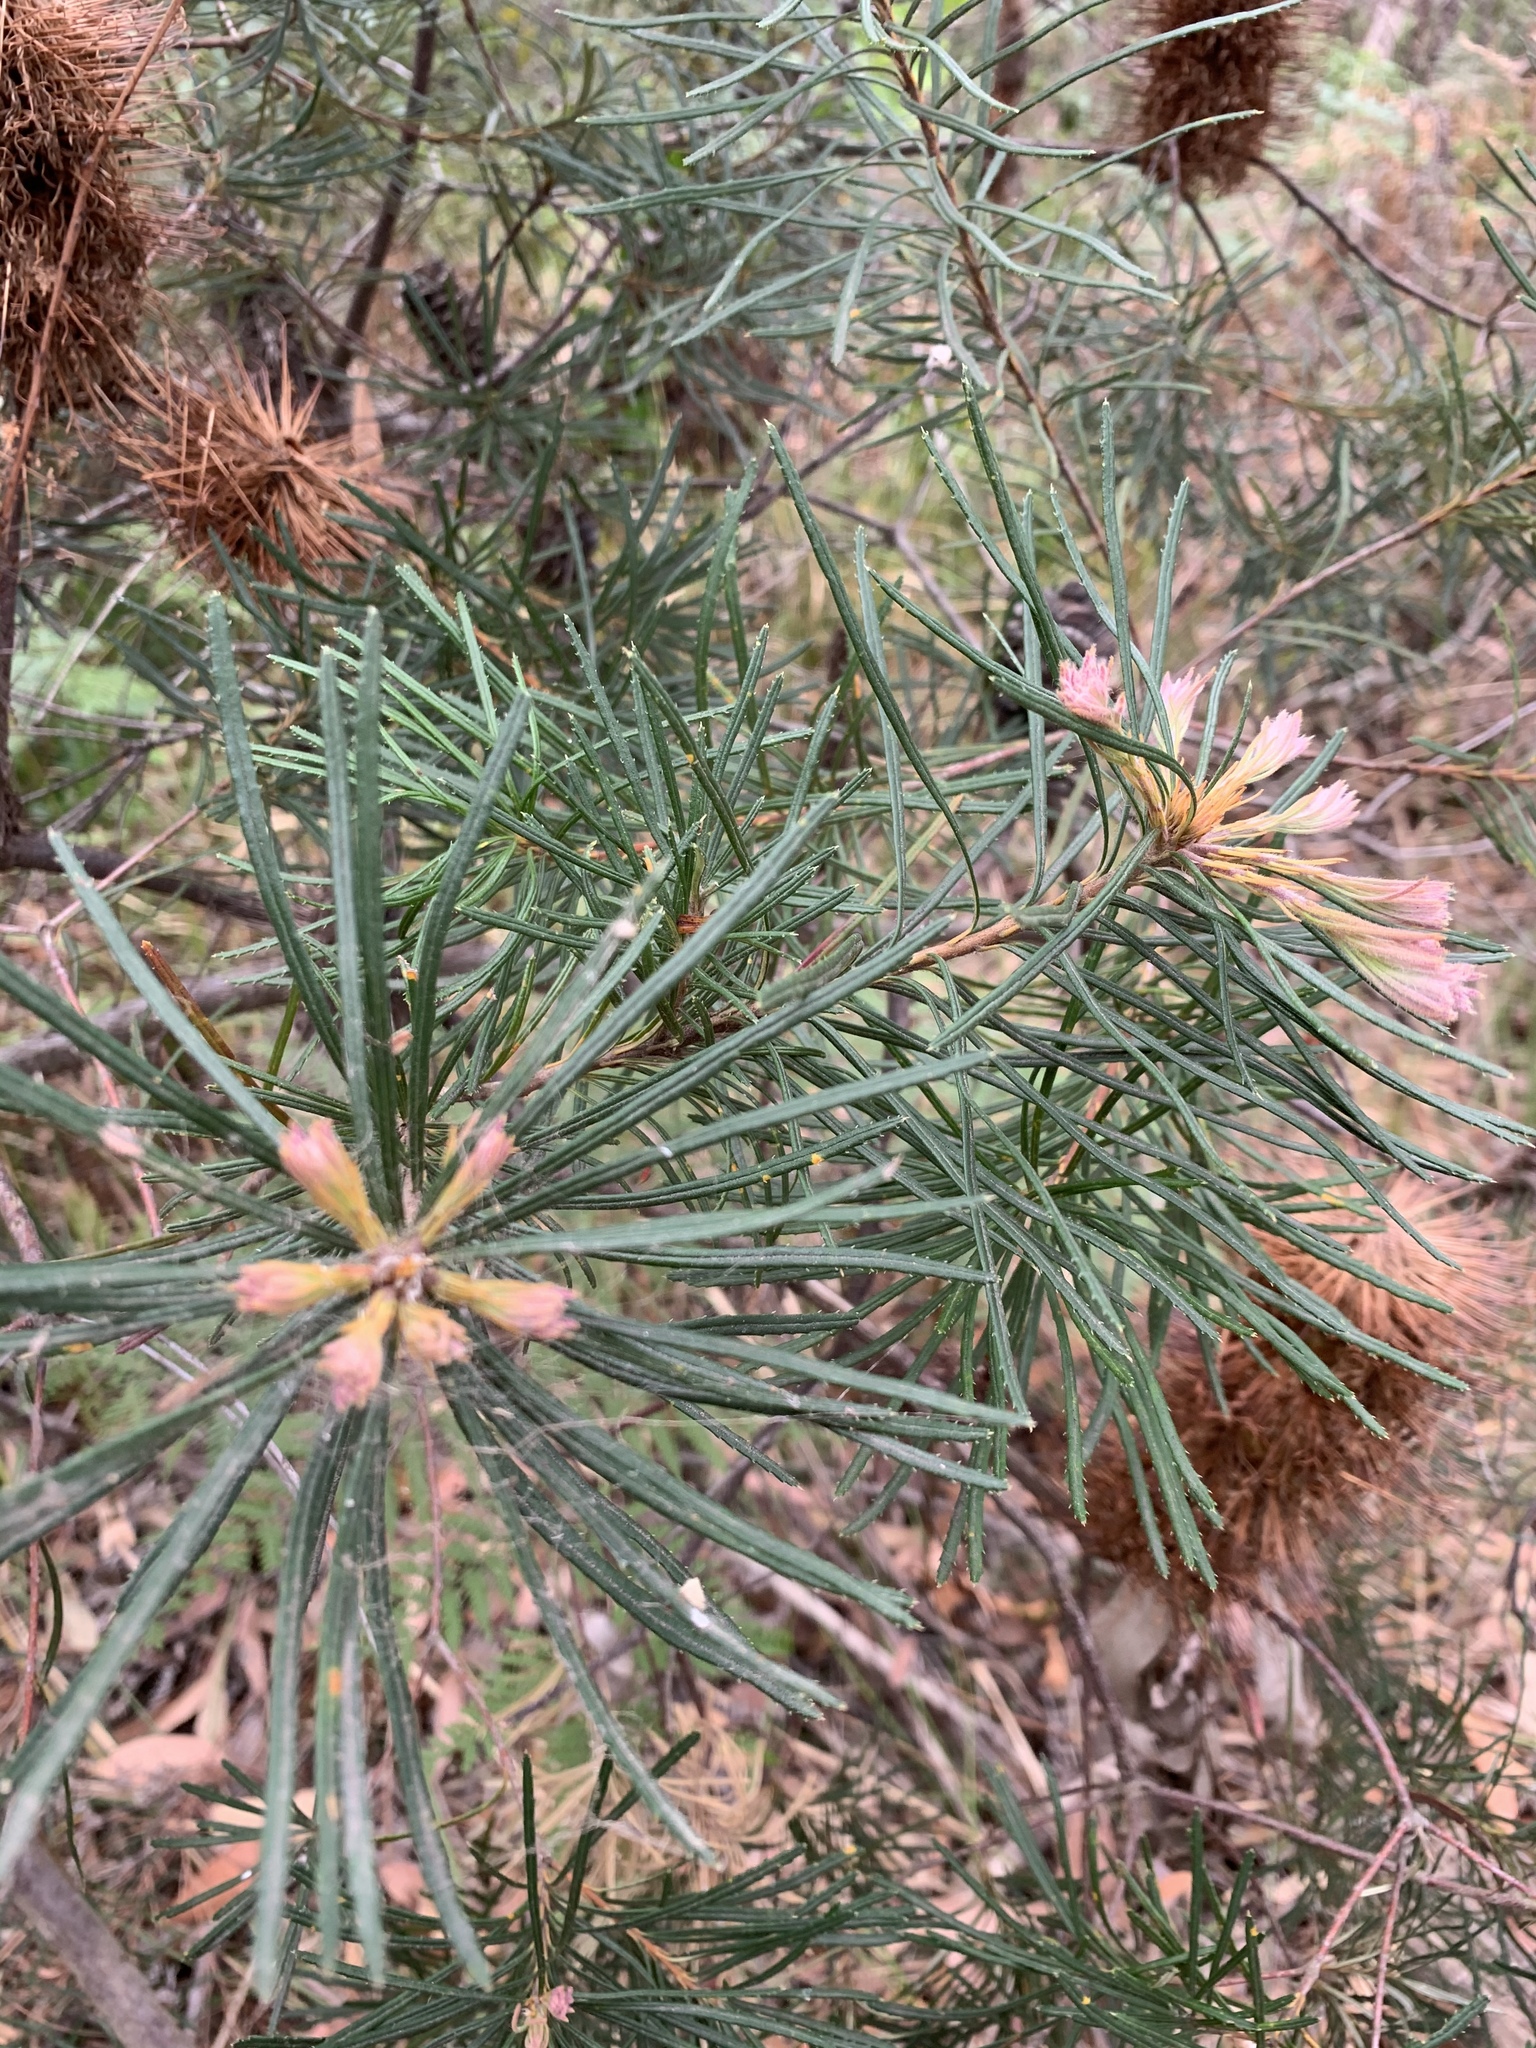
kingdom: Plantae
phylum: Tracheophyta
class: Magnoliopsida
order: Proteales
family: Proteaceae
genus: Banksia
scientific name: Banksia spinulosa
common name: Hairpin banksia
